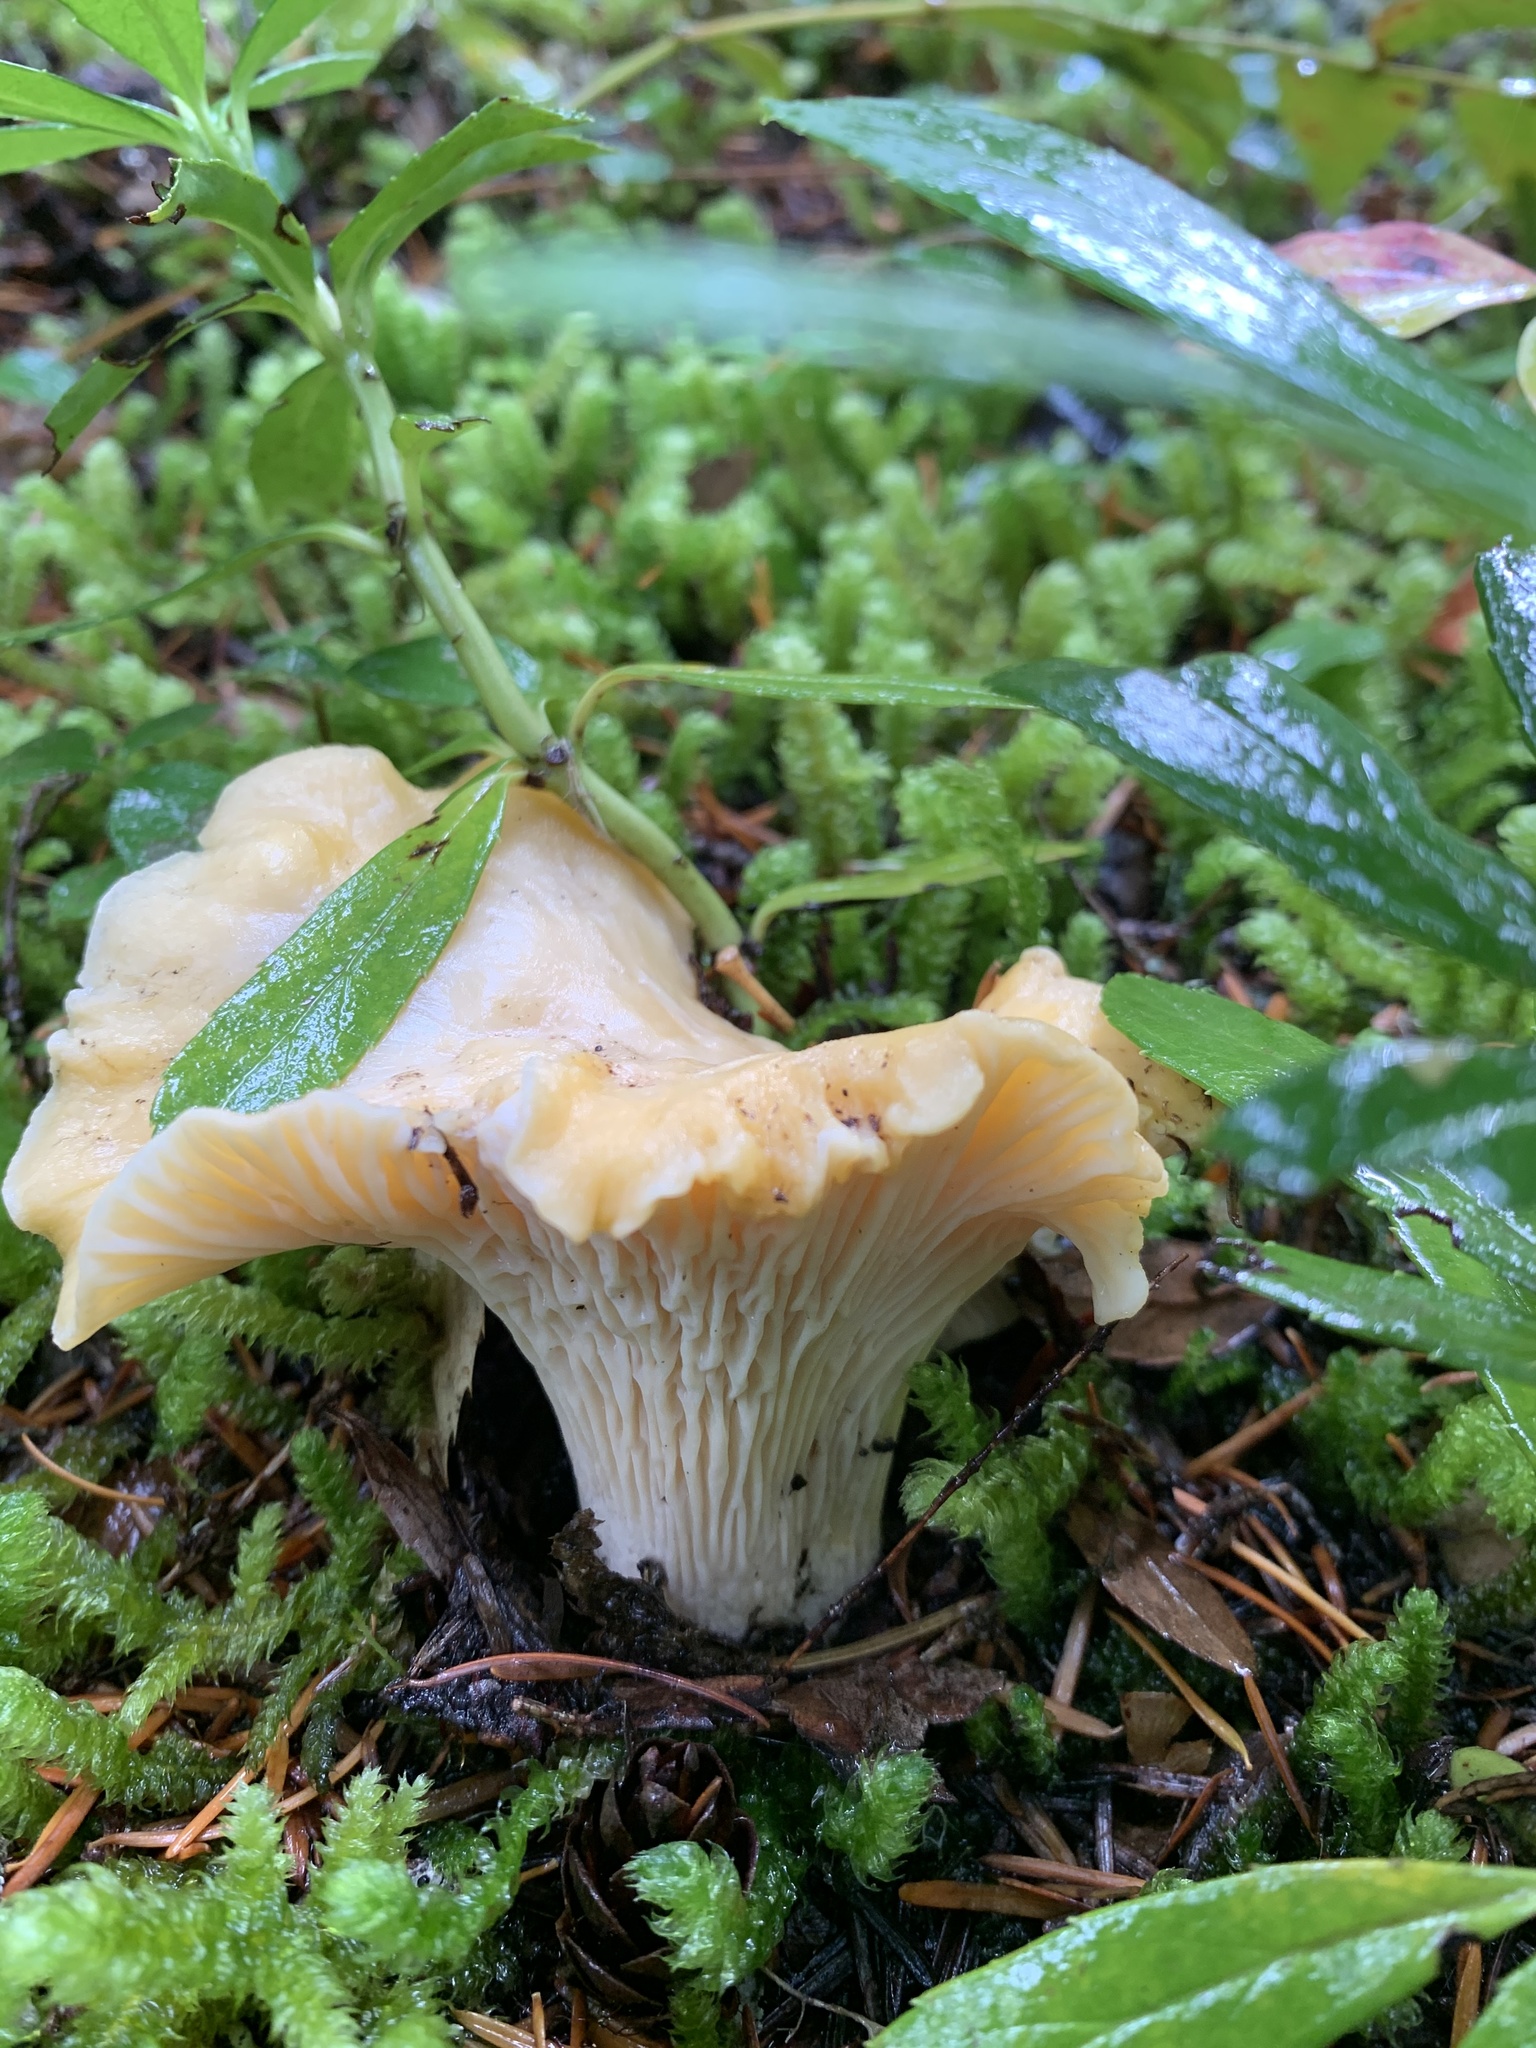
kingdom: Fungi
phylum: Basidiomycota
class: Agaricomycetes
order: Cantharellales
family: Hydnaceae
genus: Cantharellus
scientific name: Cantharellus subalbidus
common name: White chanterelle
